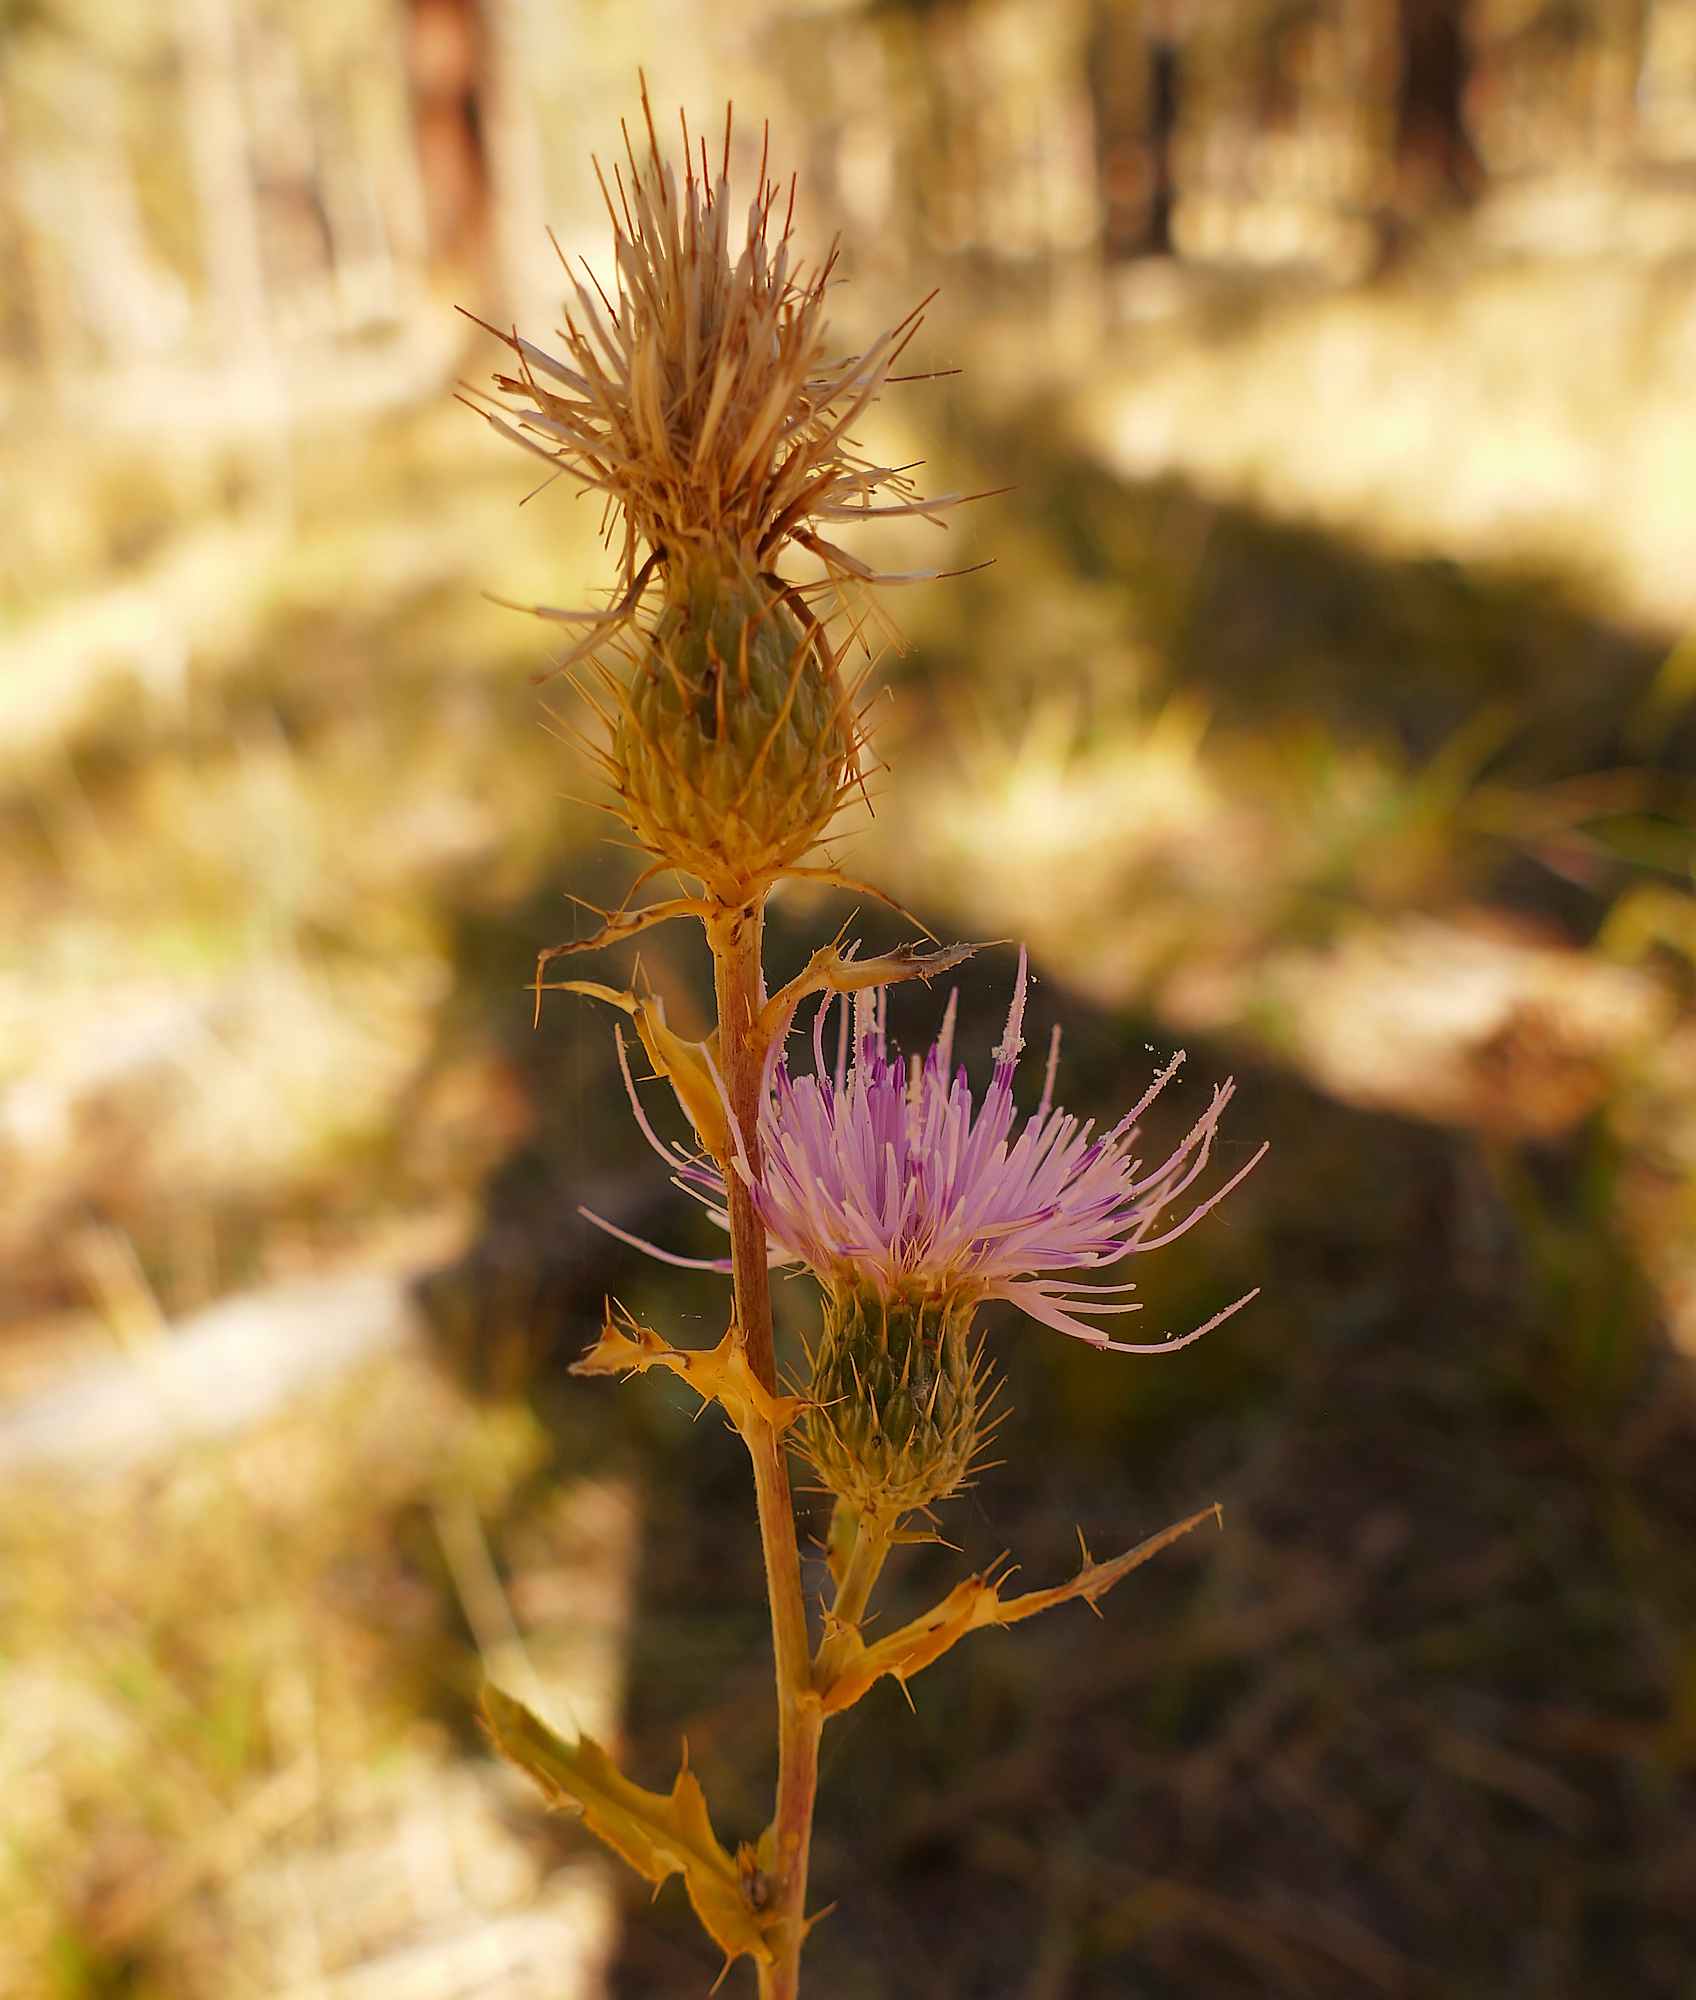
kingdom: Plantae
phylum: Tracheophyta
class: Magnoliopsida
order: Asterales
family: Asteraceae
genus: Cirsium
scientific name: Cirsium wheeleri
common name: Wheeler's thistle
